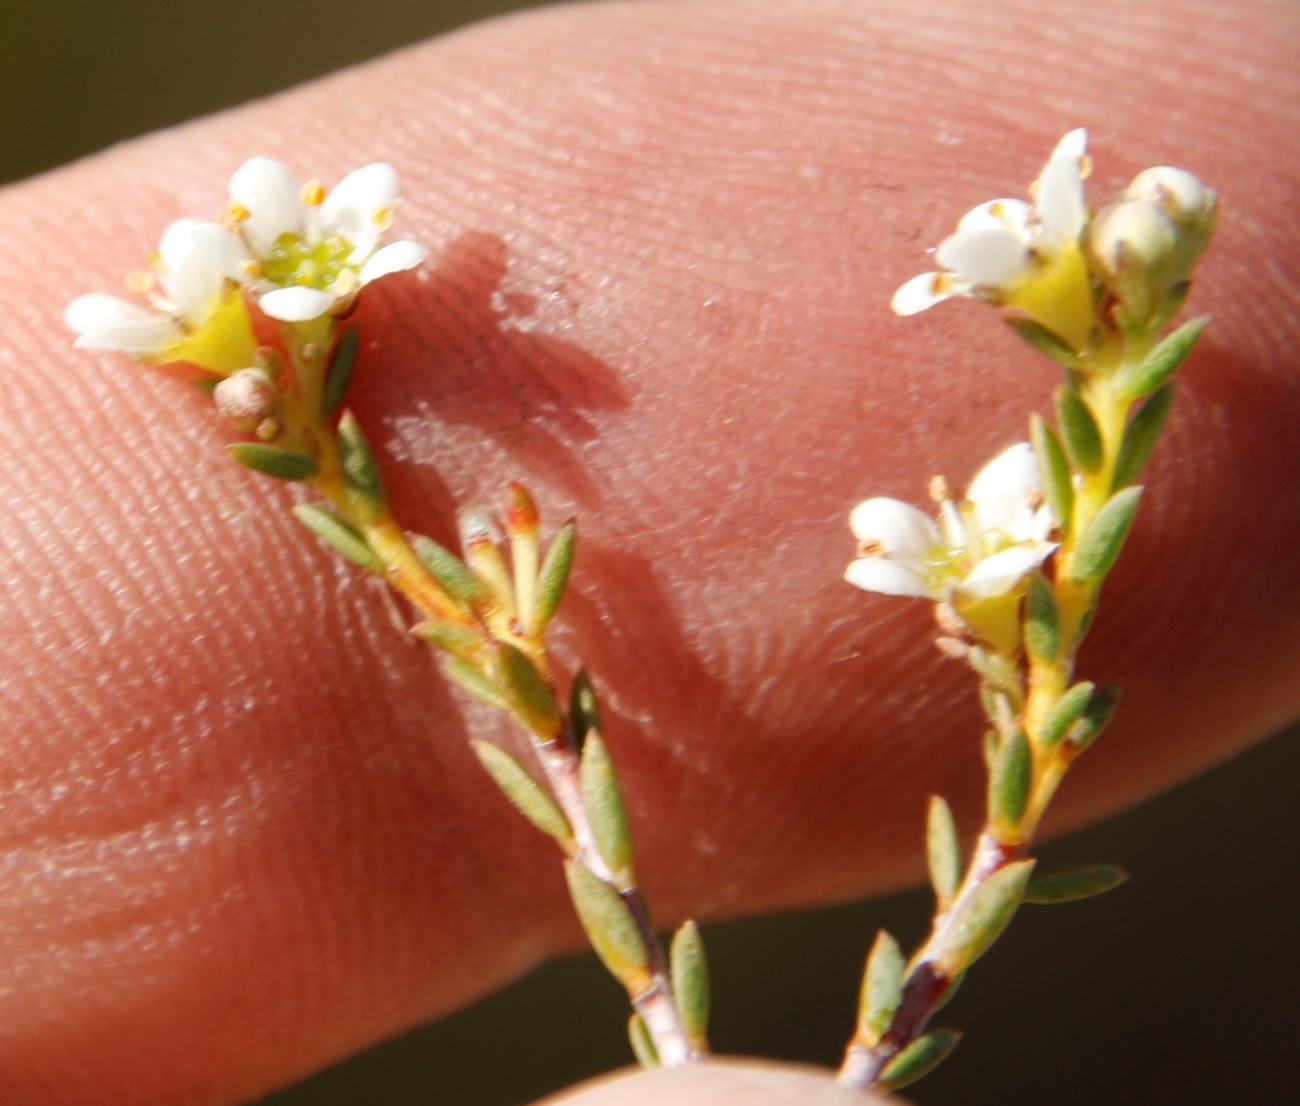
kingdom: Plantae
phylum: Tracheophyta
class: Magnoliopsida
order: Sapindales
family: Rutaceae
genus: Diosma
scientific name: Diosma hirsuta
